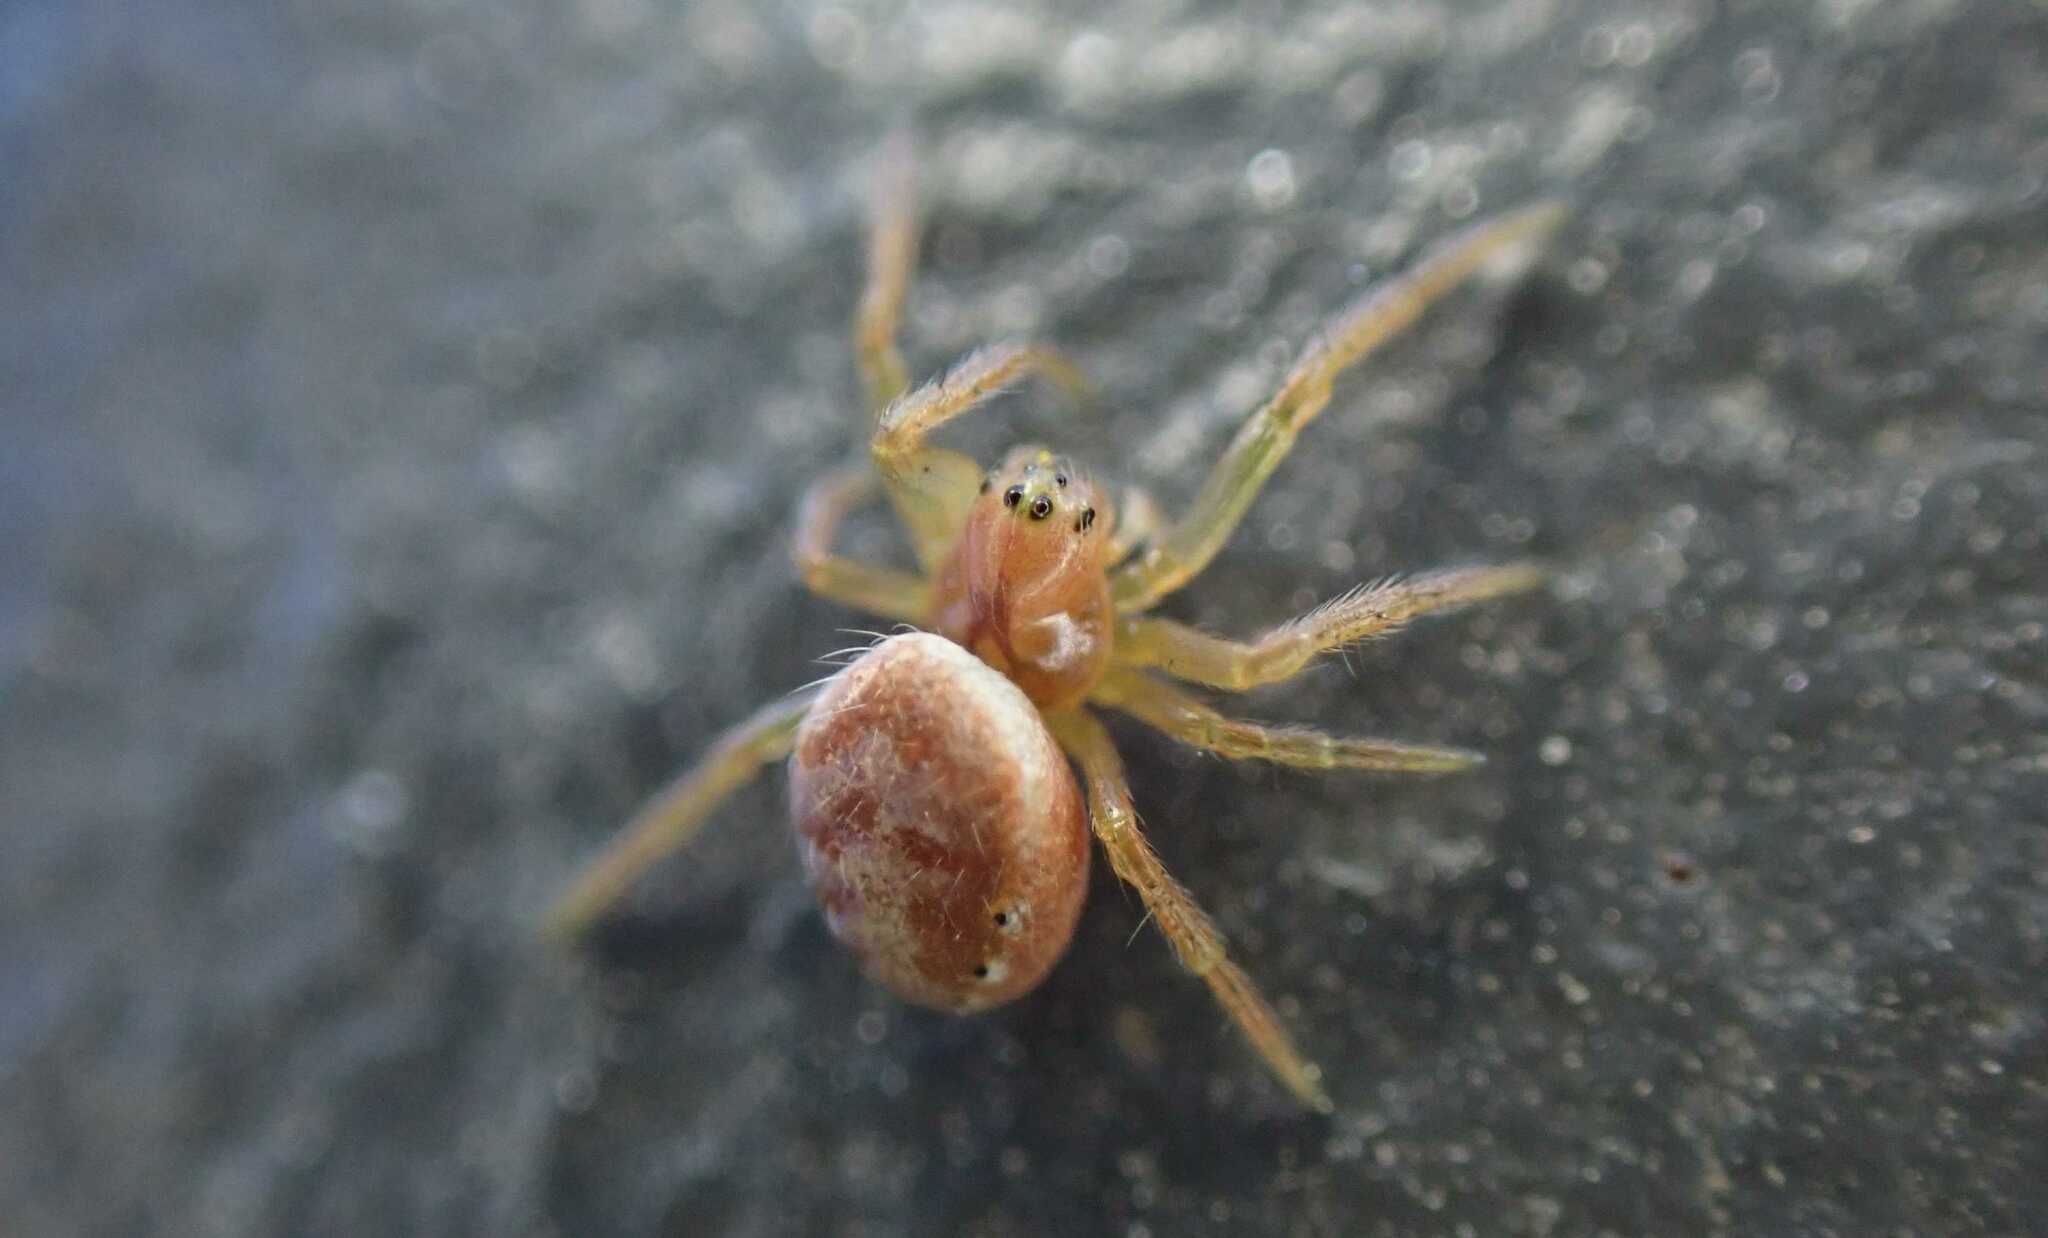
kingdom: Animalia
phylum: Arthropoda
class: Arachnida
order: Araneae
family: Araneidae
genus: Araniella
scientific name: Araniella
